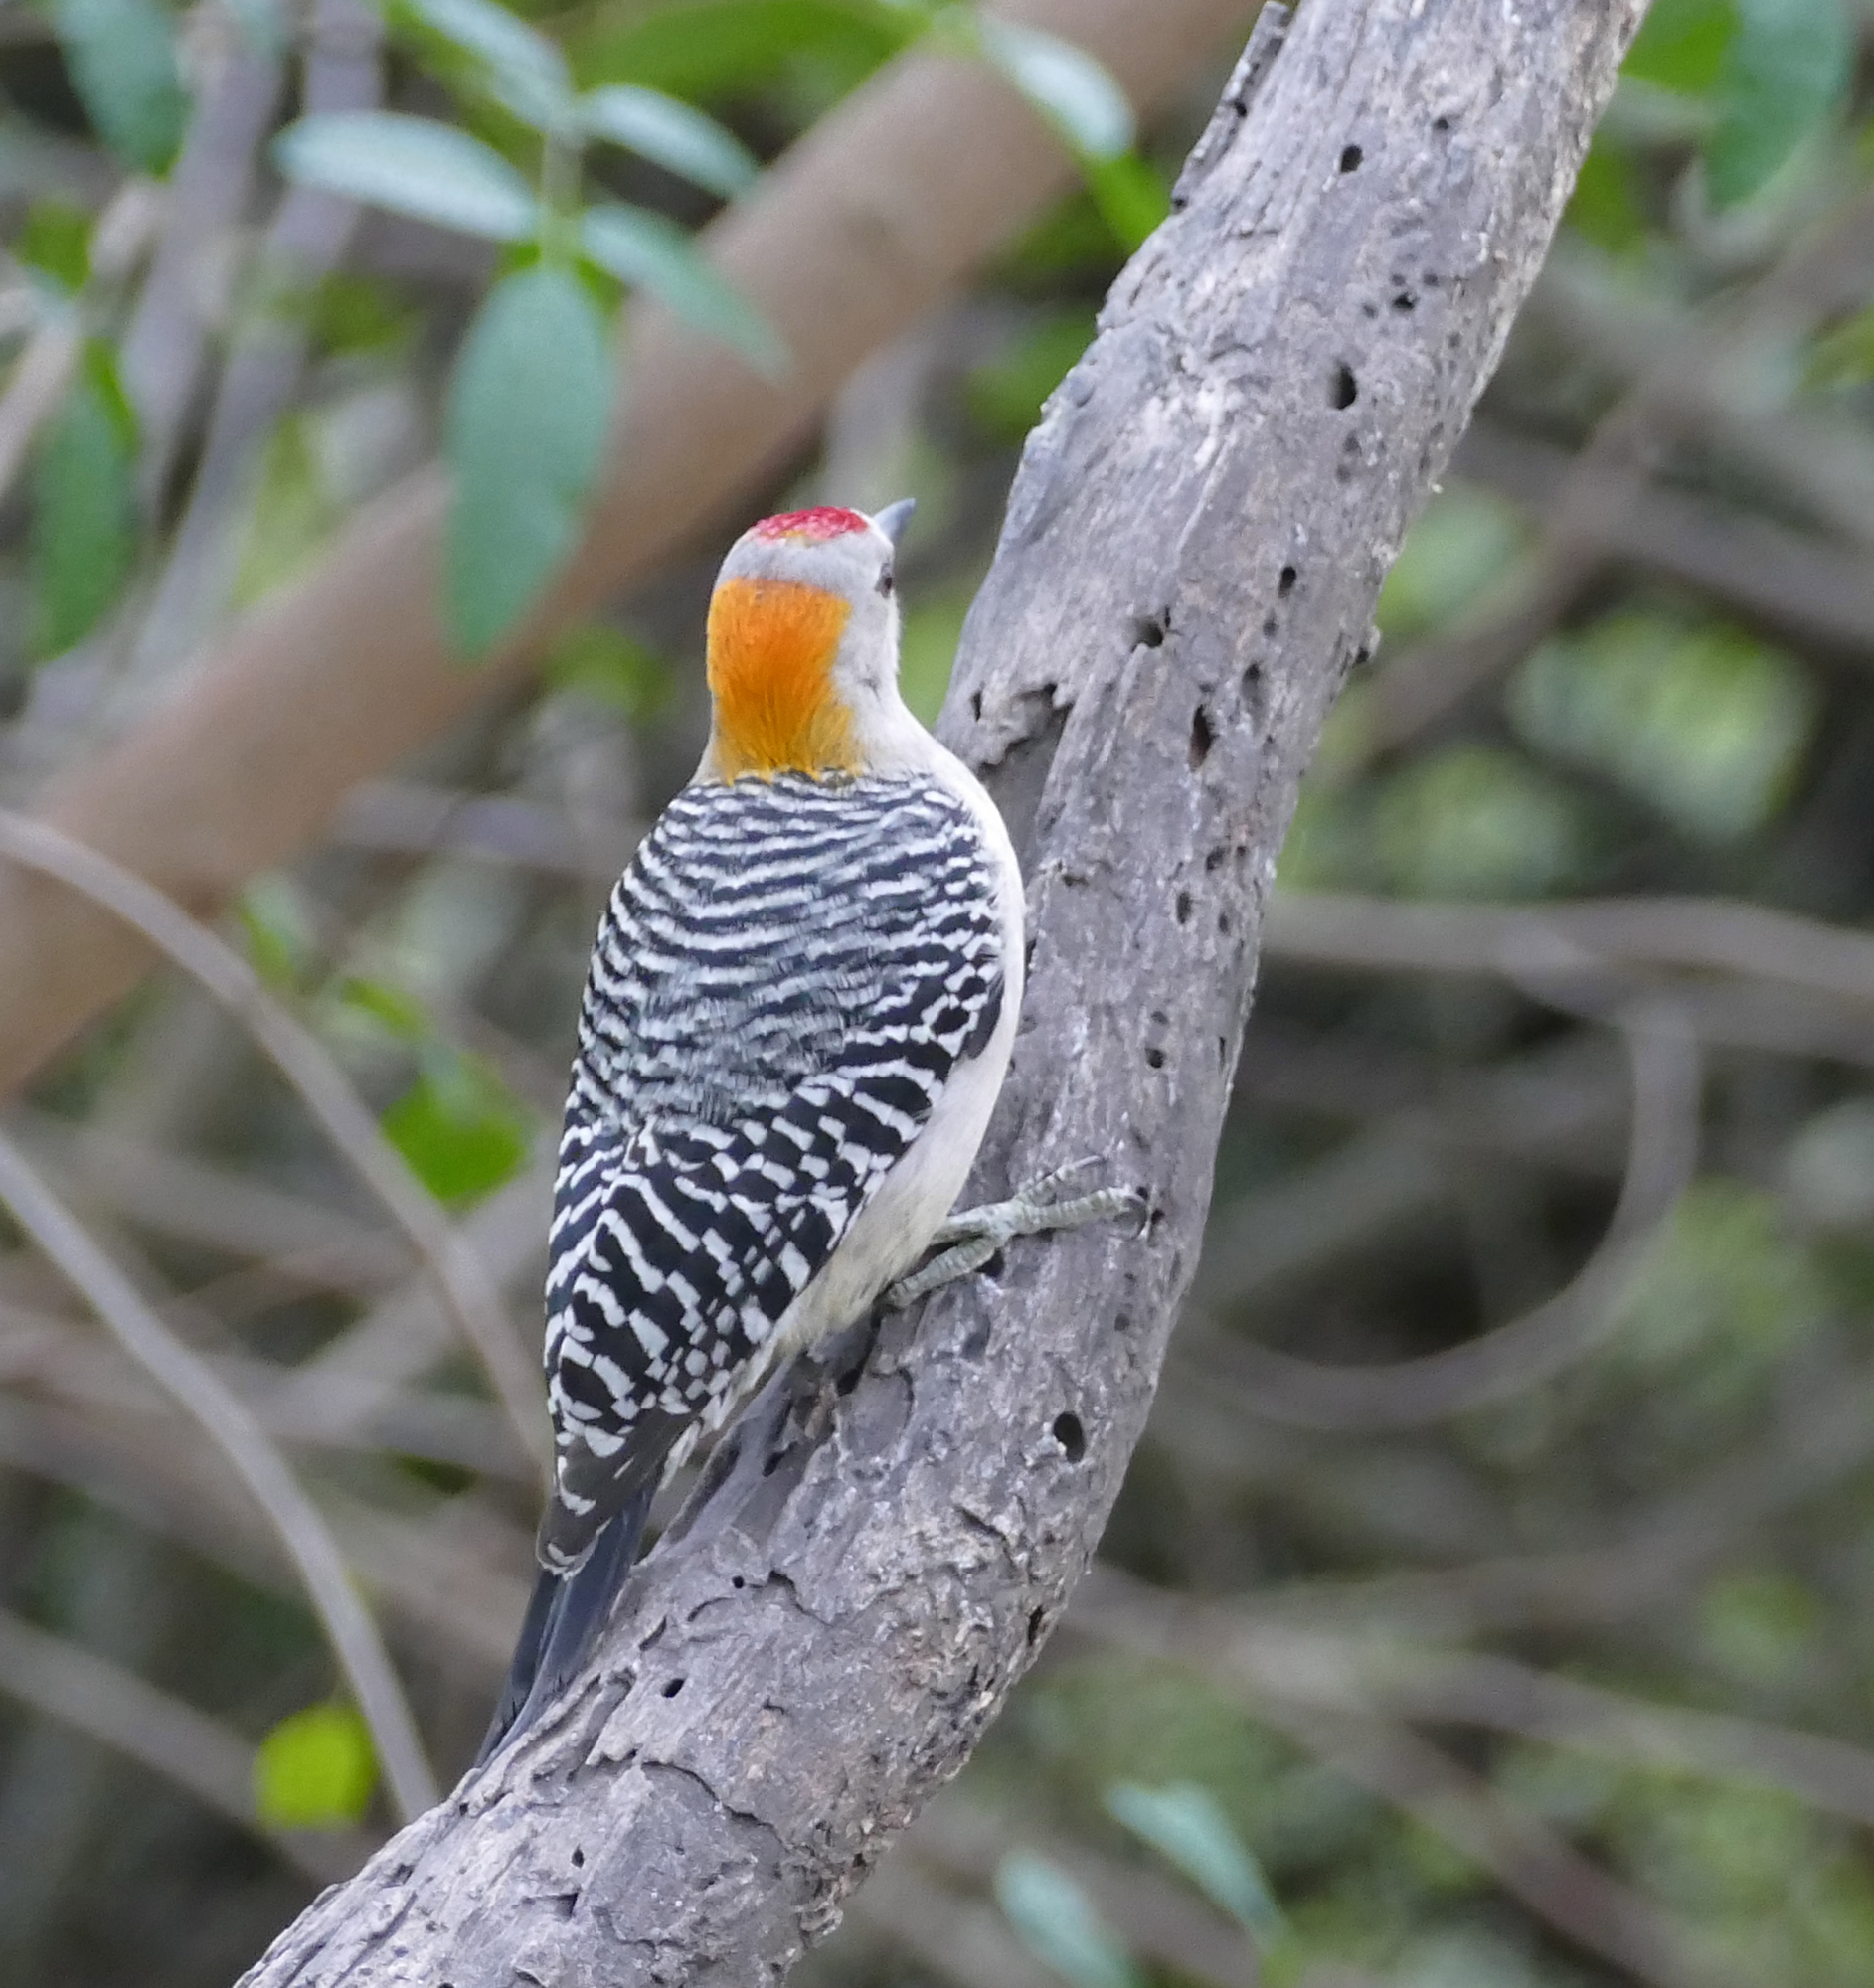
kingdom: Animalia
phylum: Chordata
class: Aves
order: Piciformes
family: Picidae
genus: Melanerpes
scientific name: Melanerpes aurifrons
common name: Golden-fronted woodpecker
